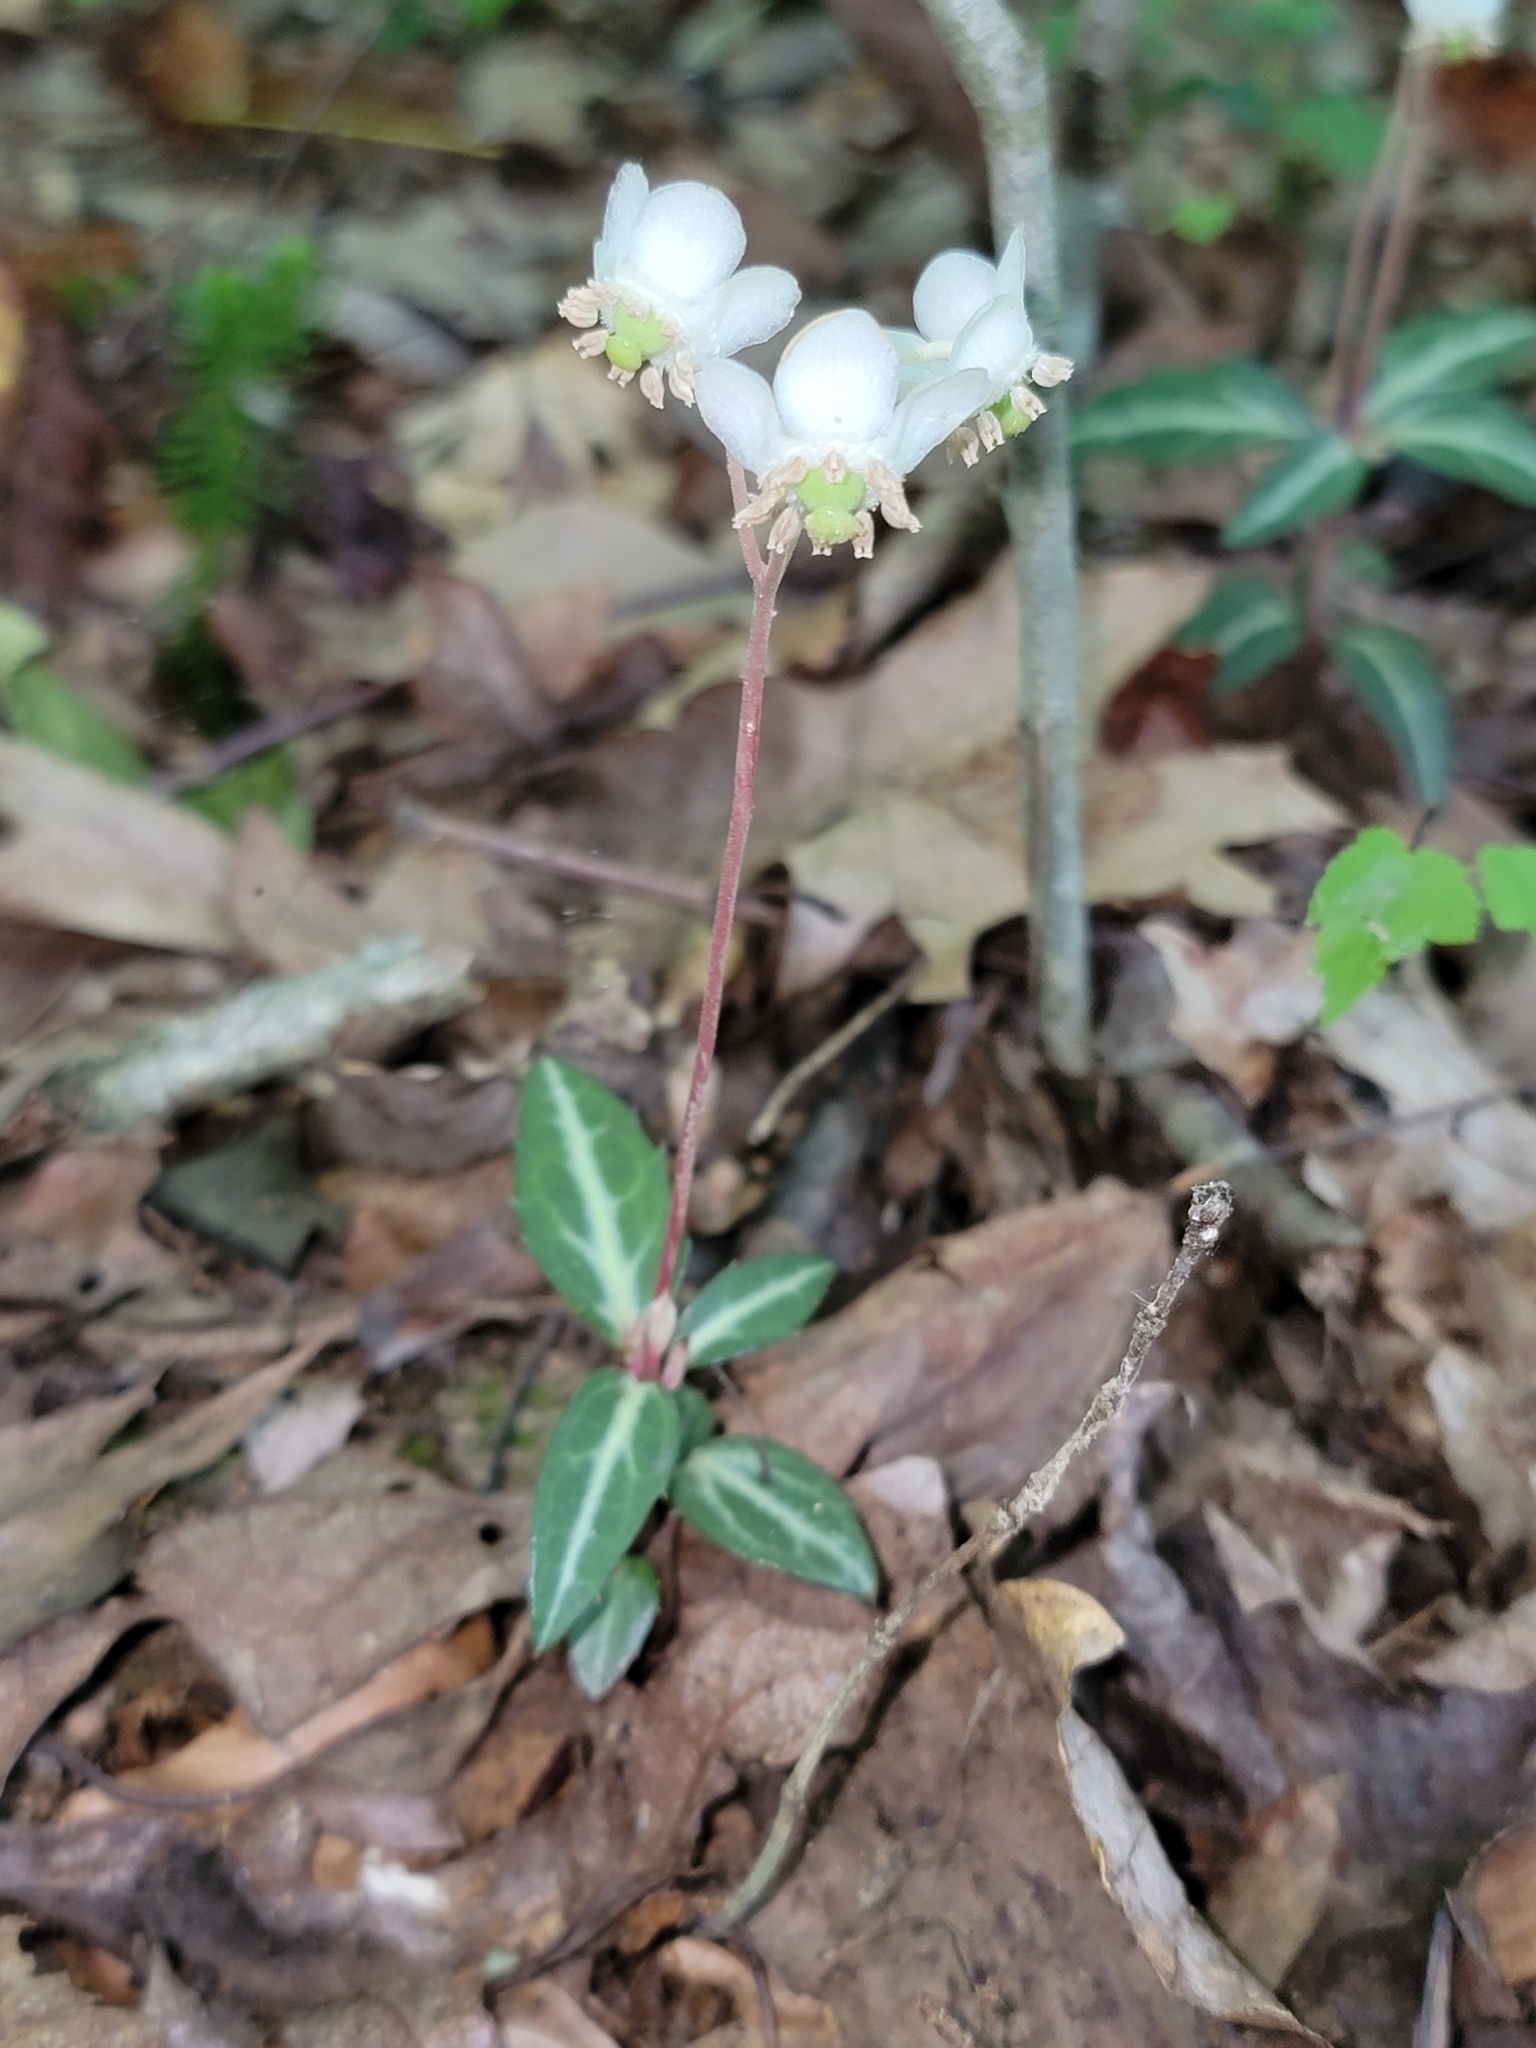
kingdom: Plantae
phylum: Tracheophyta
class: Magnoliopsida
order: Ericales
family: Ericaceae
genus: Chimaphila
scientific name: Chimaphila maculata
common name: Spotted pipsissewa
